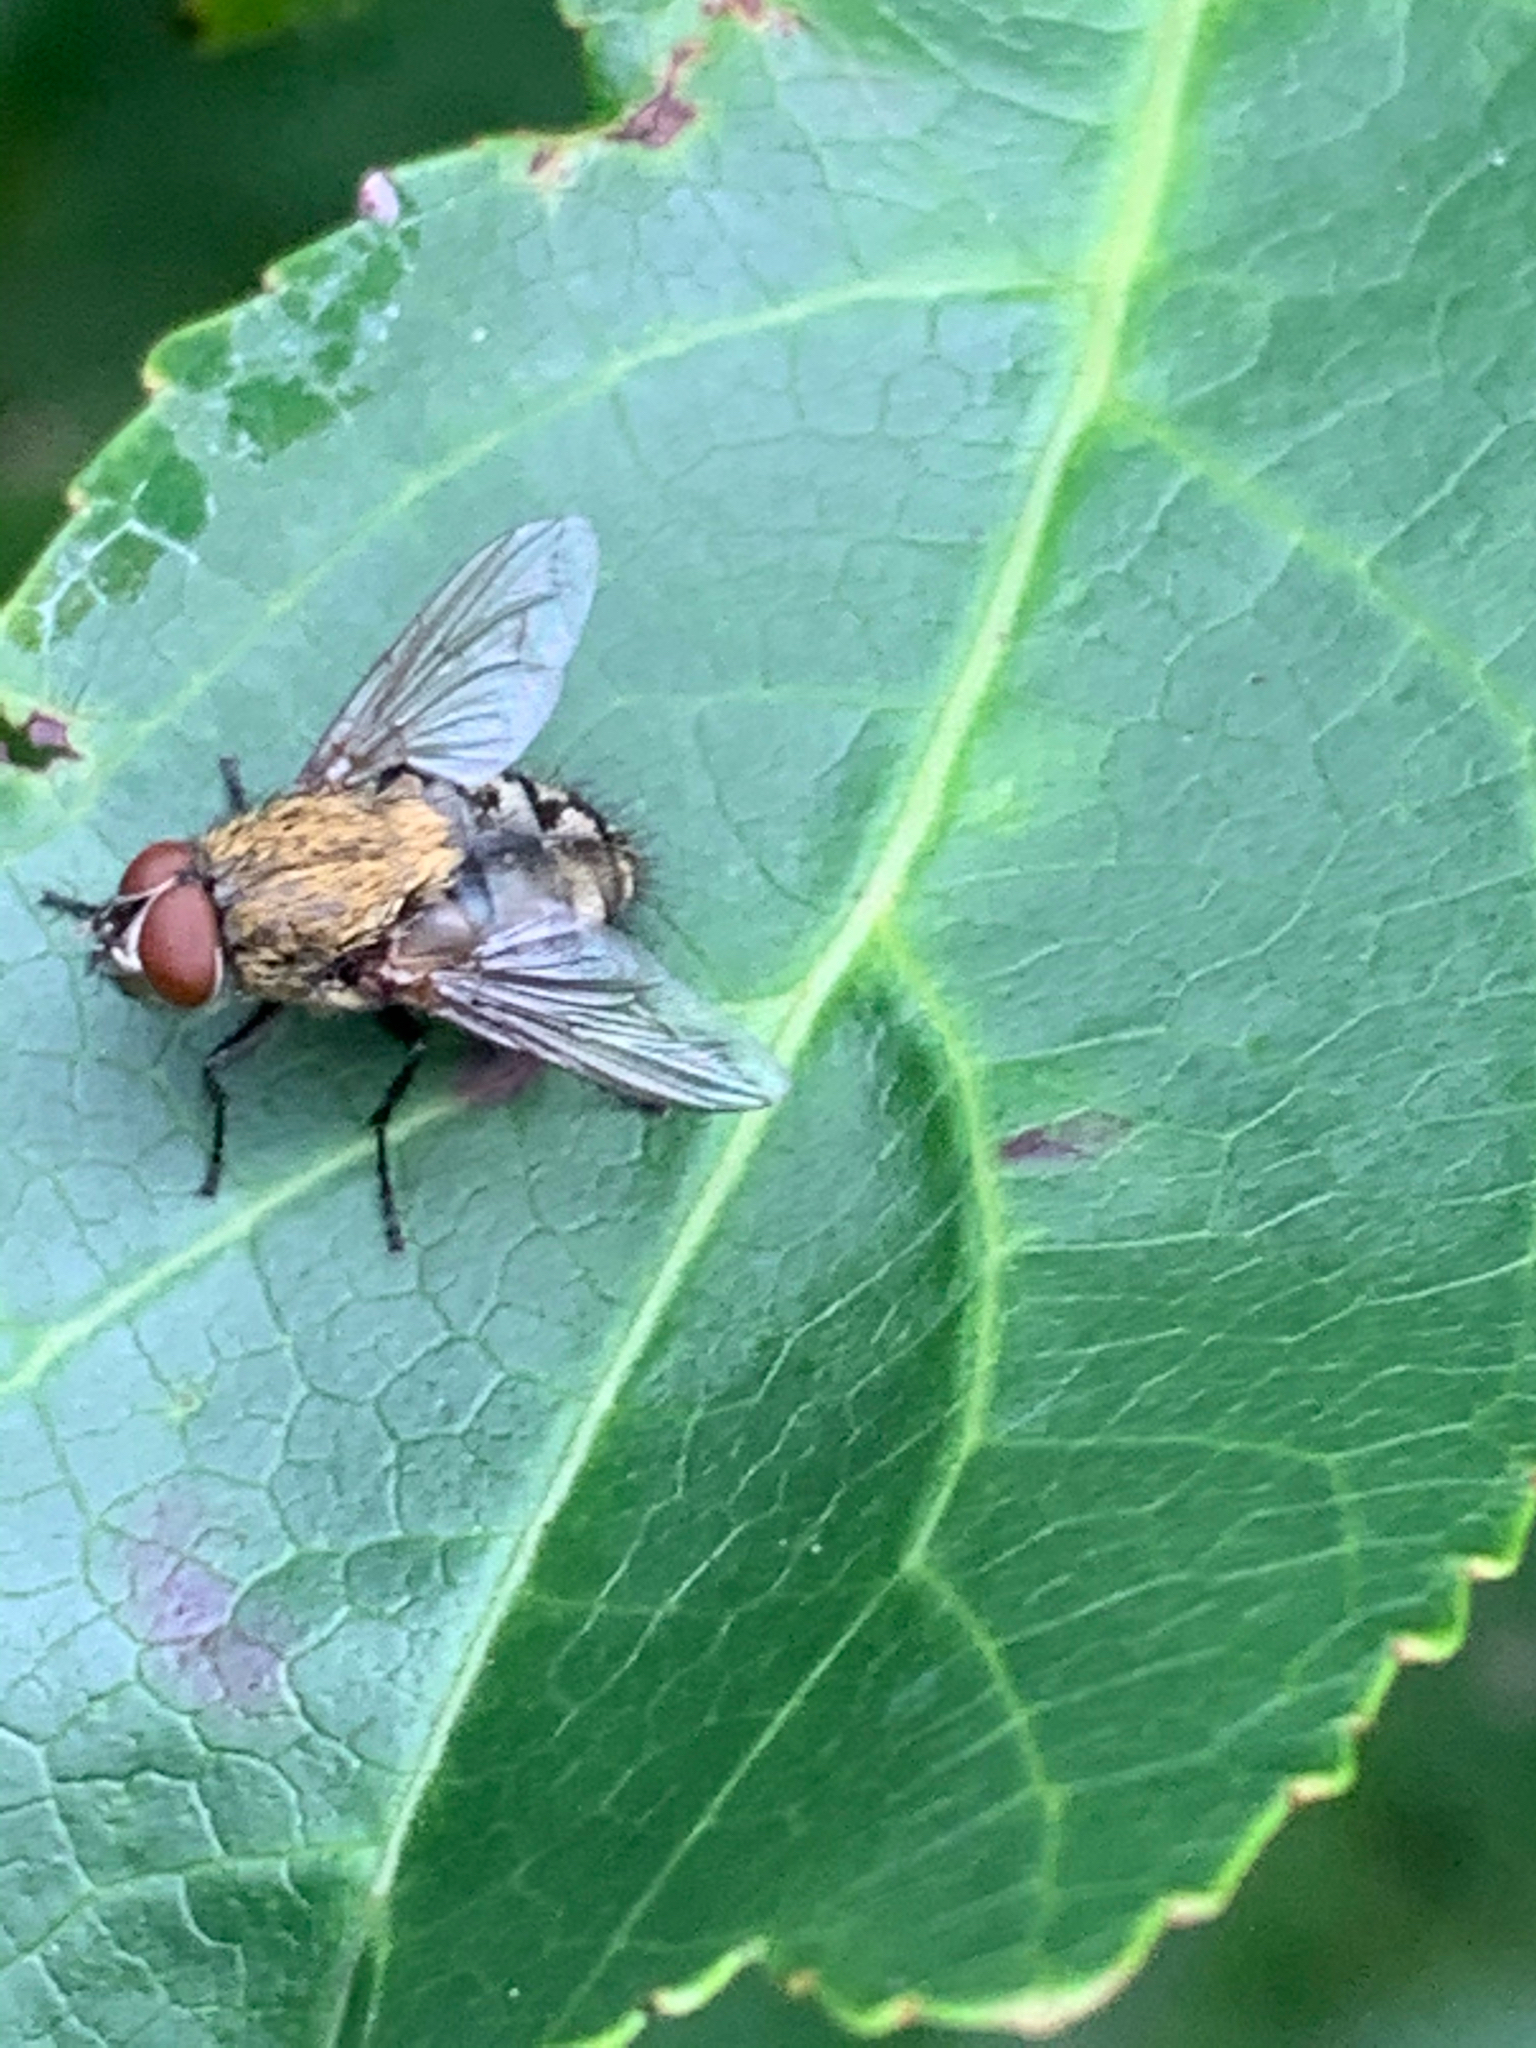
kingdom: Animalia
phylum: Arthropoda
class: Insecta
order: Diptera
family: Polleniidae
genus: Pollenia
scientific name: Pollenia
